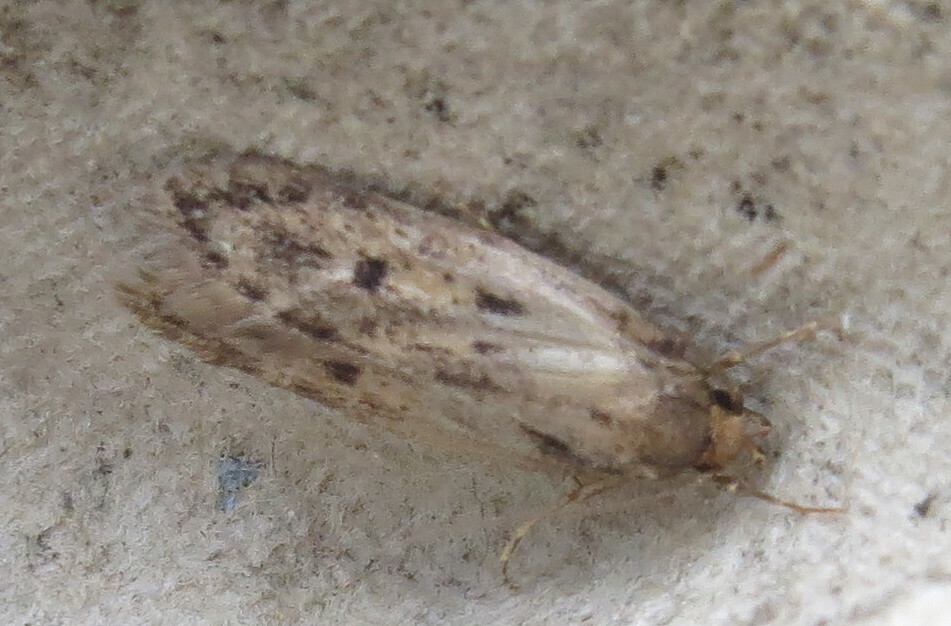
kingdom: Animalia
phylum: Arthropoda
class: Insecta
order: Lepidoptera
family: Oecophoridae
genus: Hofmannophila
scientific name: Hofmannophila pseudospretella
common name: Brown house moth
